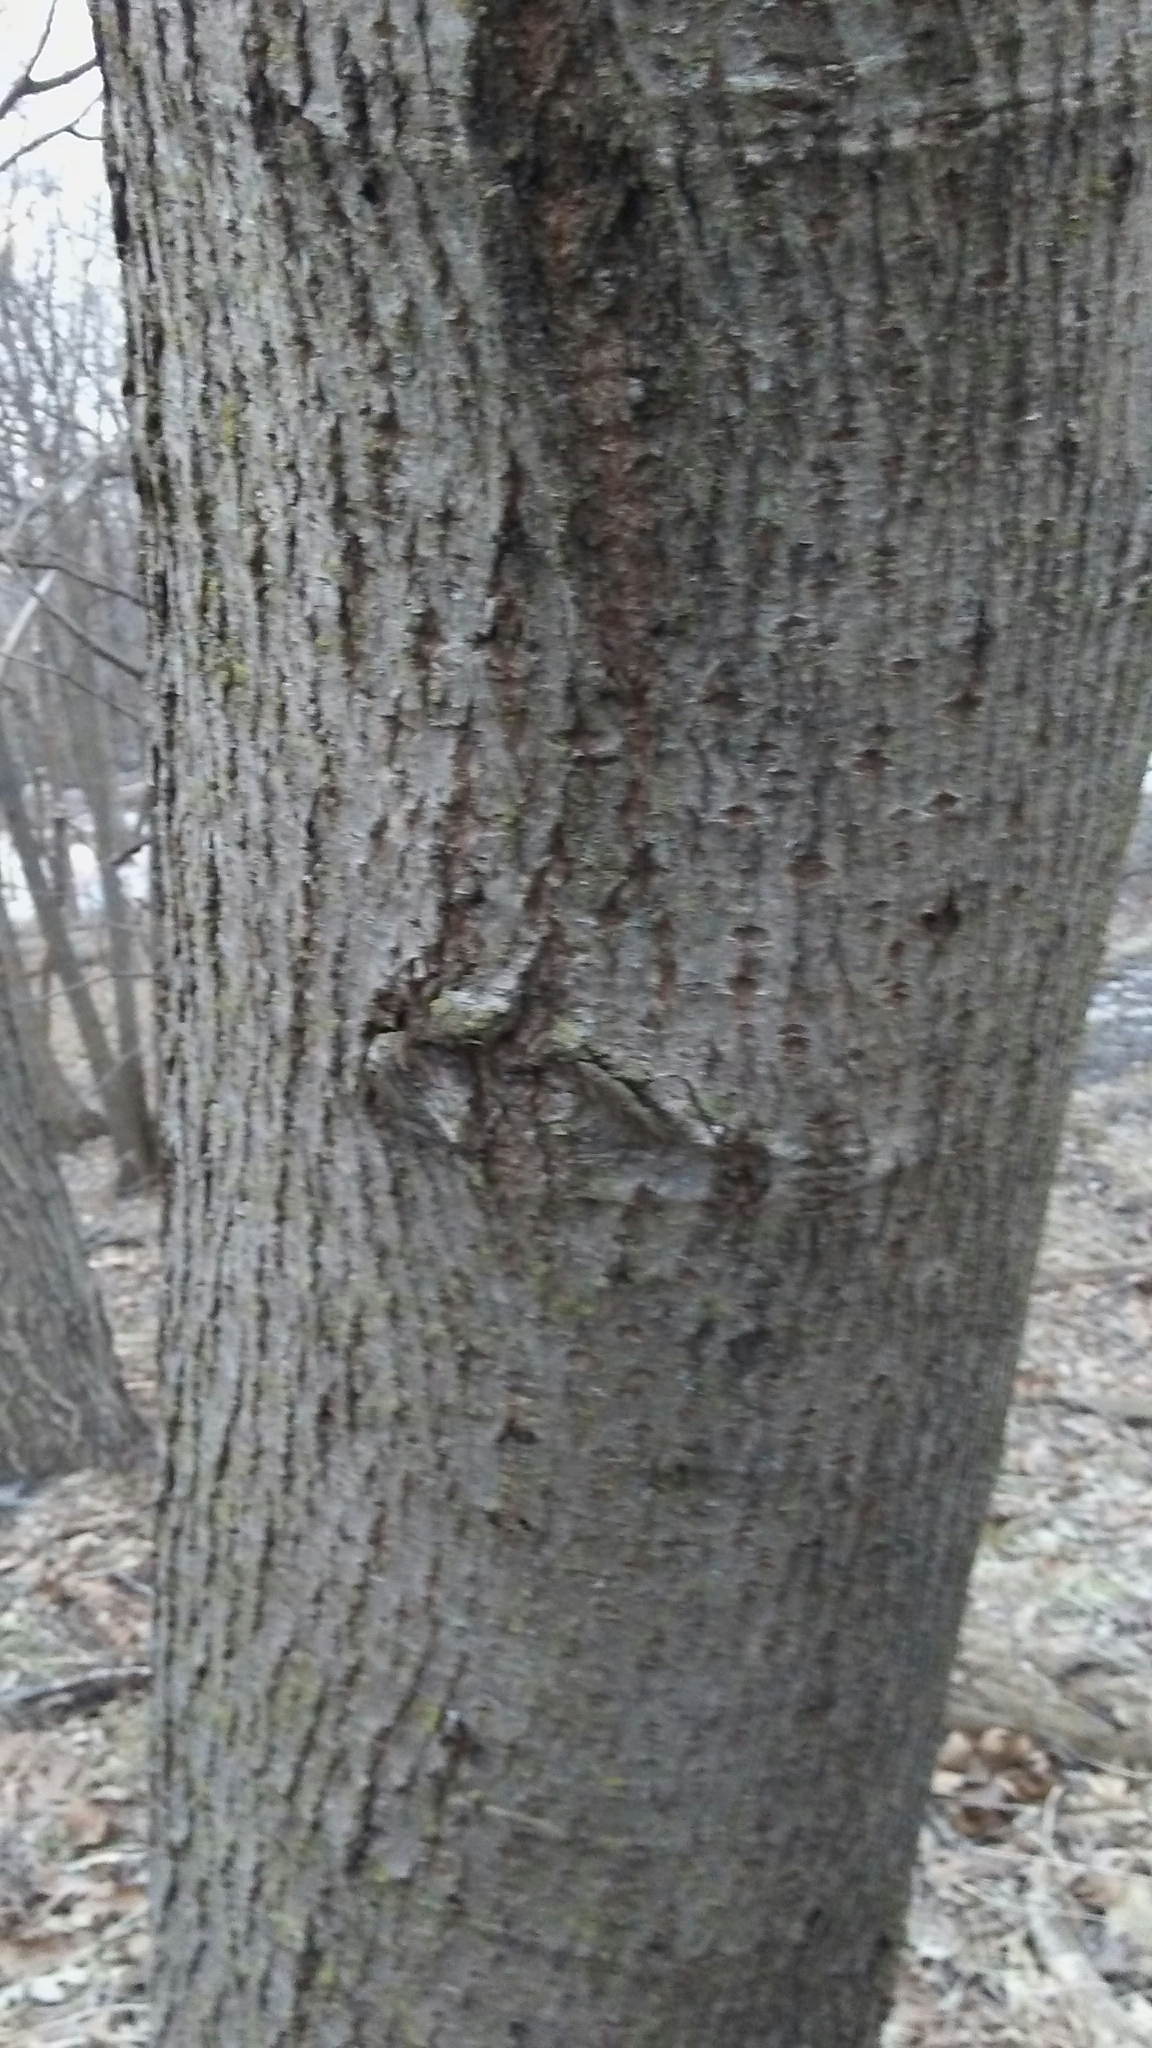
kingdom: Plantae
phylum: Tracheophyta
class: Magnoliopsida
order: Malvales
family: Malvaceae
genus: Tilia
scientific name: Tilia americana
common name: Basswood
